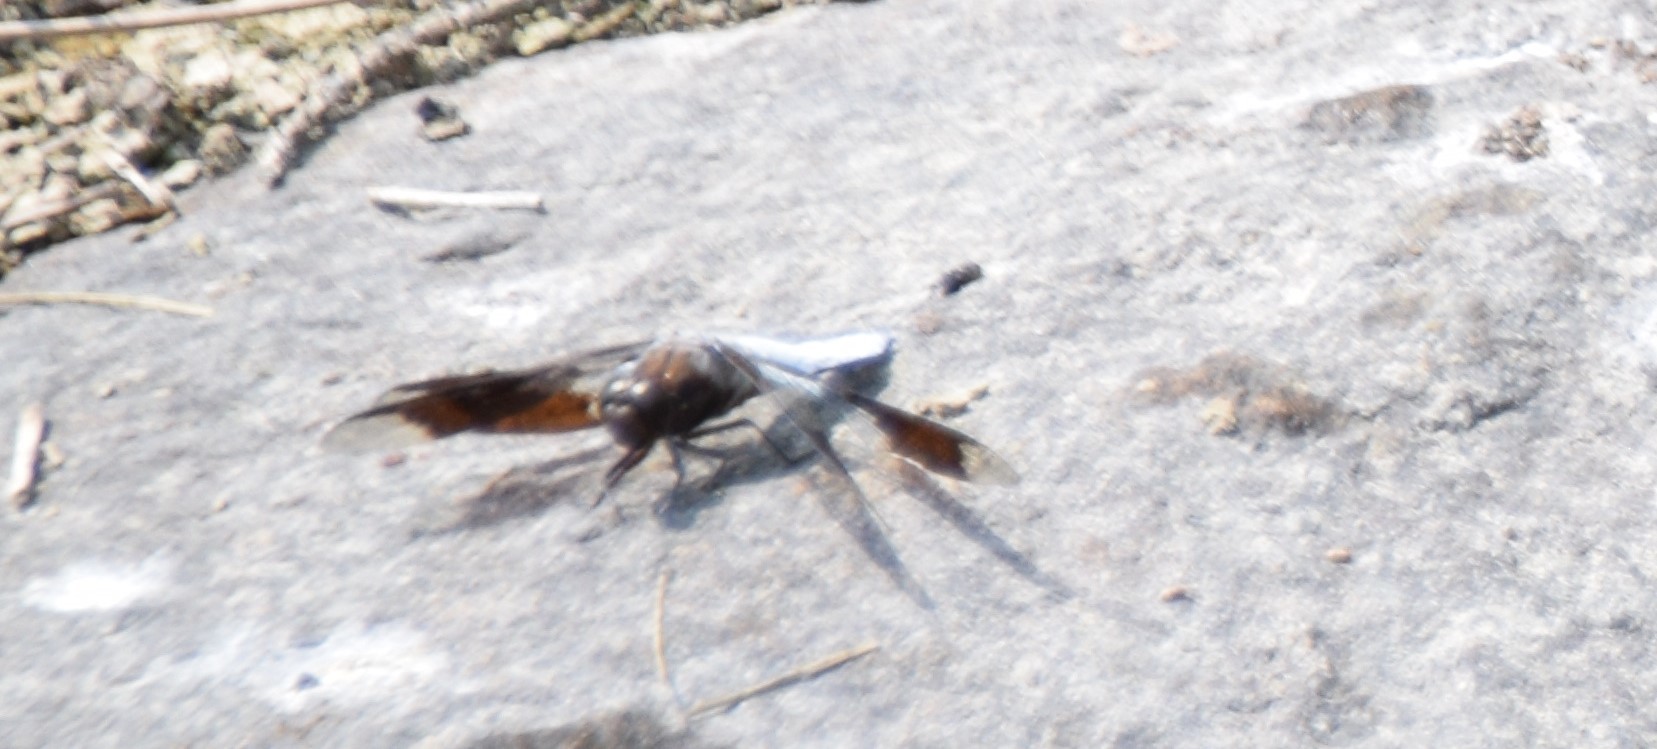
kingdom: Animalia
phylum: Arthropoda
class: Insecta
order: Odonata
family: Libellulidae
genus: Plathemis
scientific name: Plathemis lydia
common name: Common whitetail
